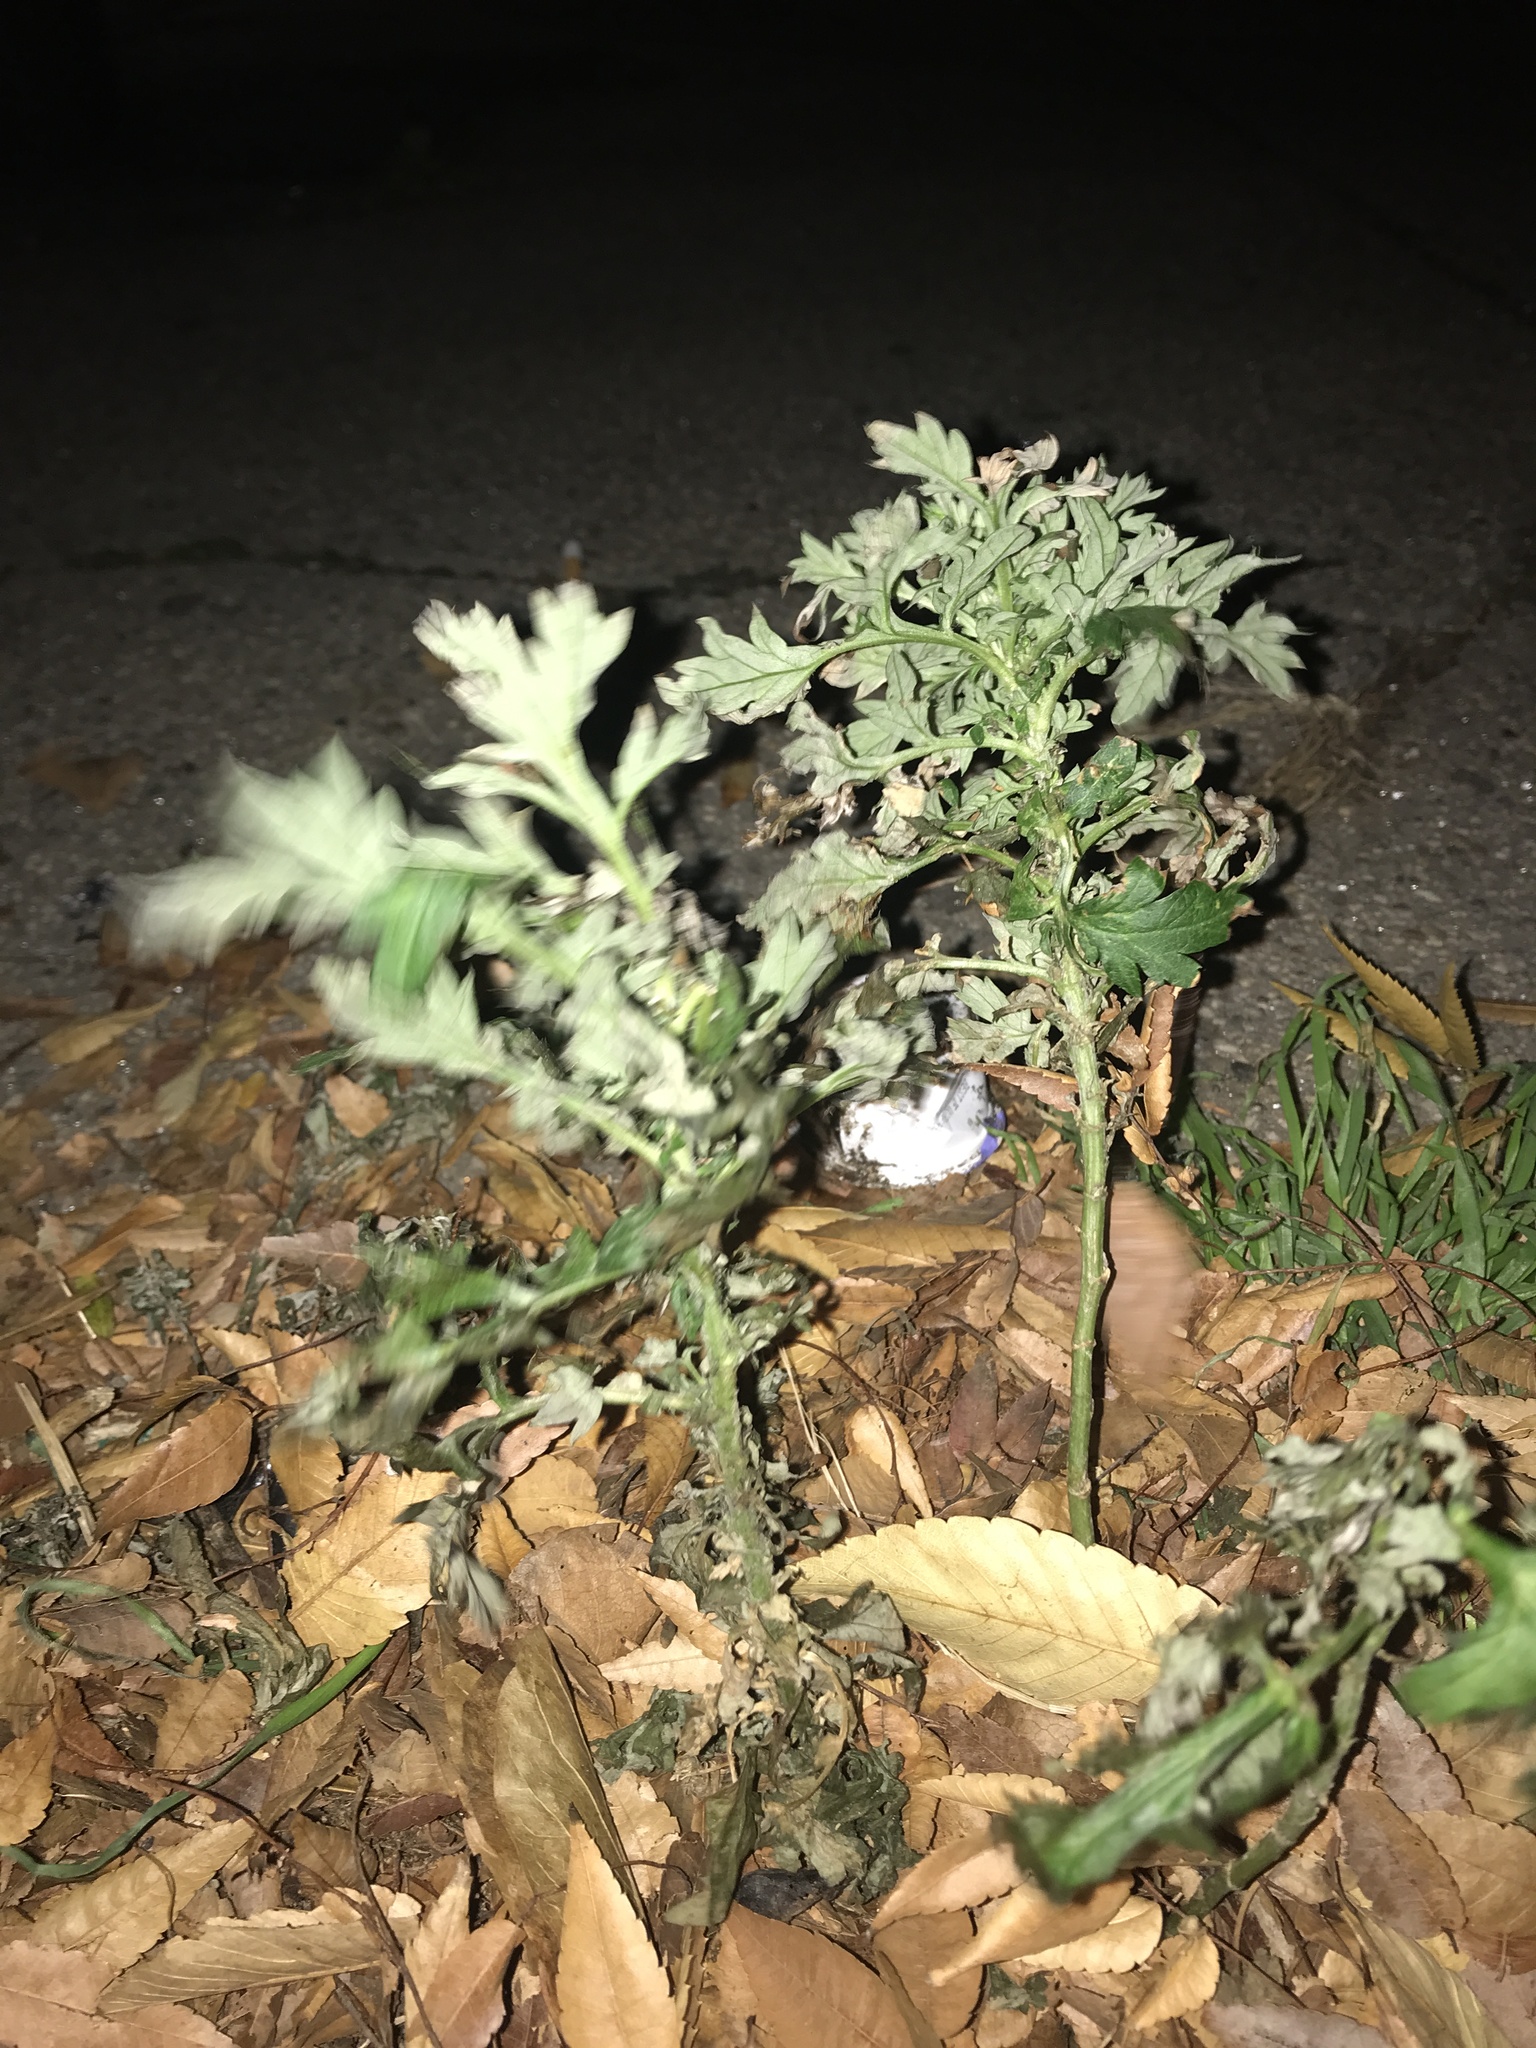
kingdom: Plantae
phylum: Tracheophyta
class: Magnoliopsida
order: Asterales
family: Asteraceae
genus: Artemisia
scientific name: Artemisia vulgaris
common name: Mugwort
